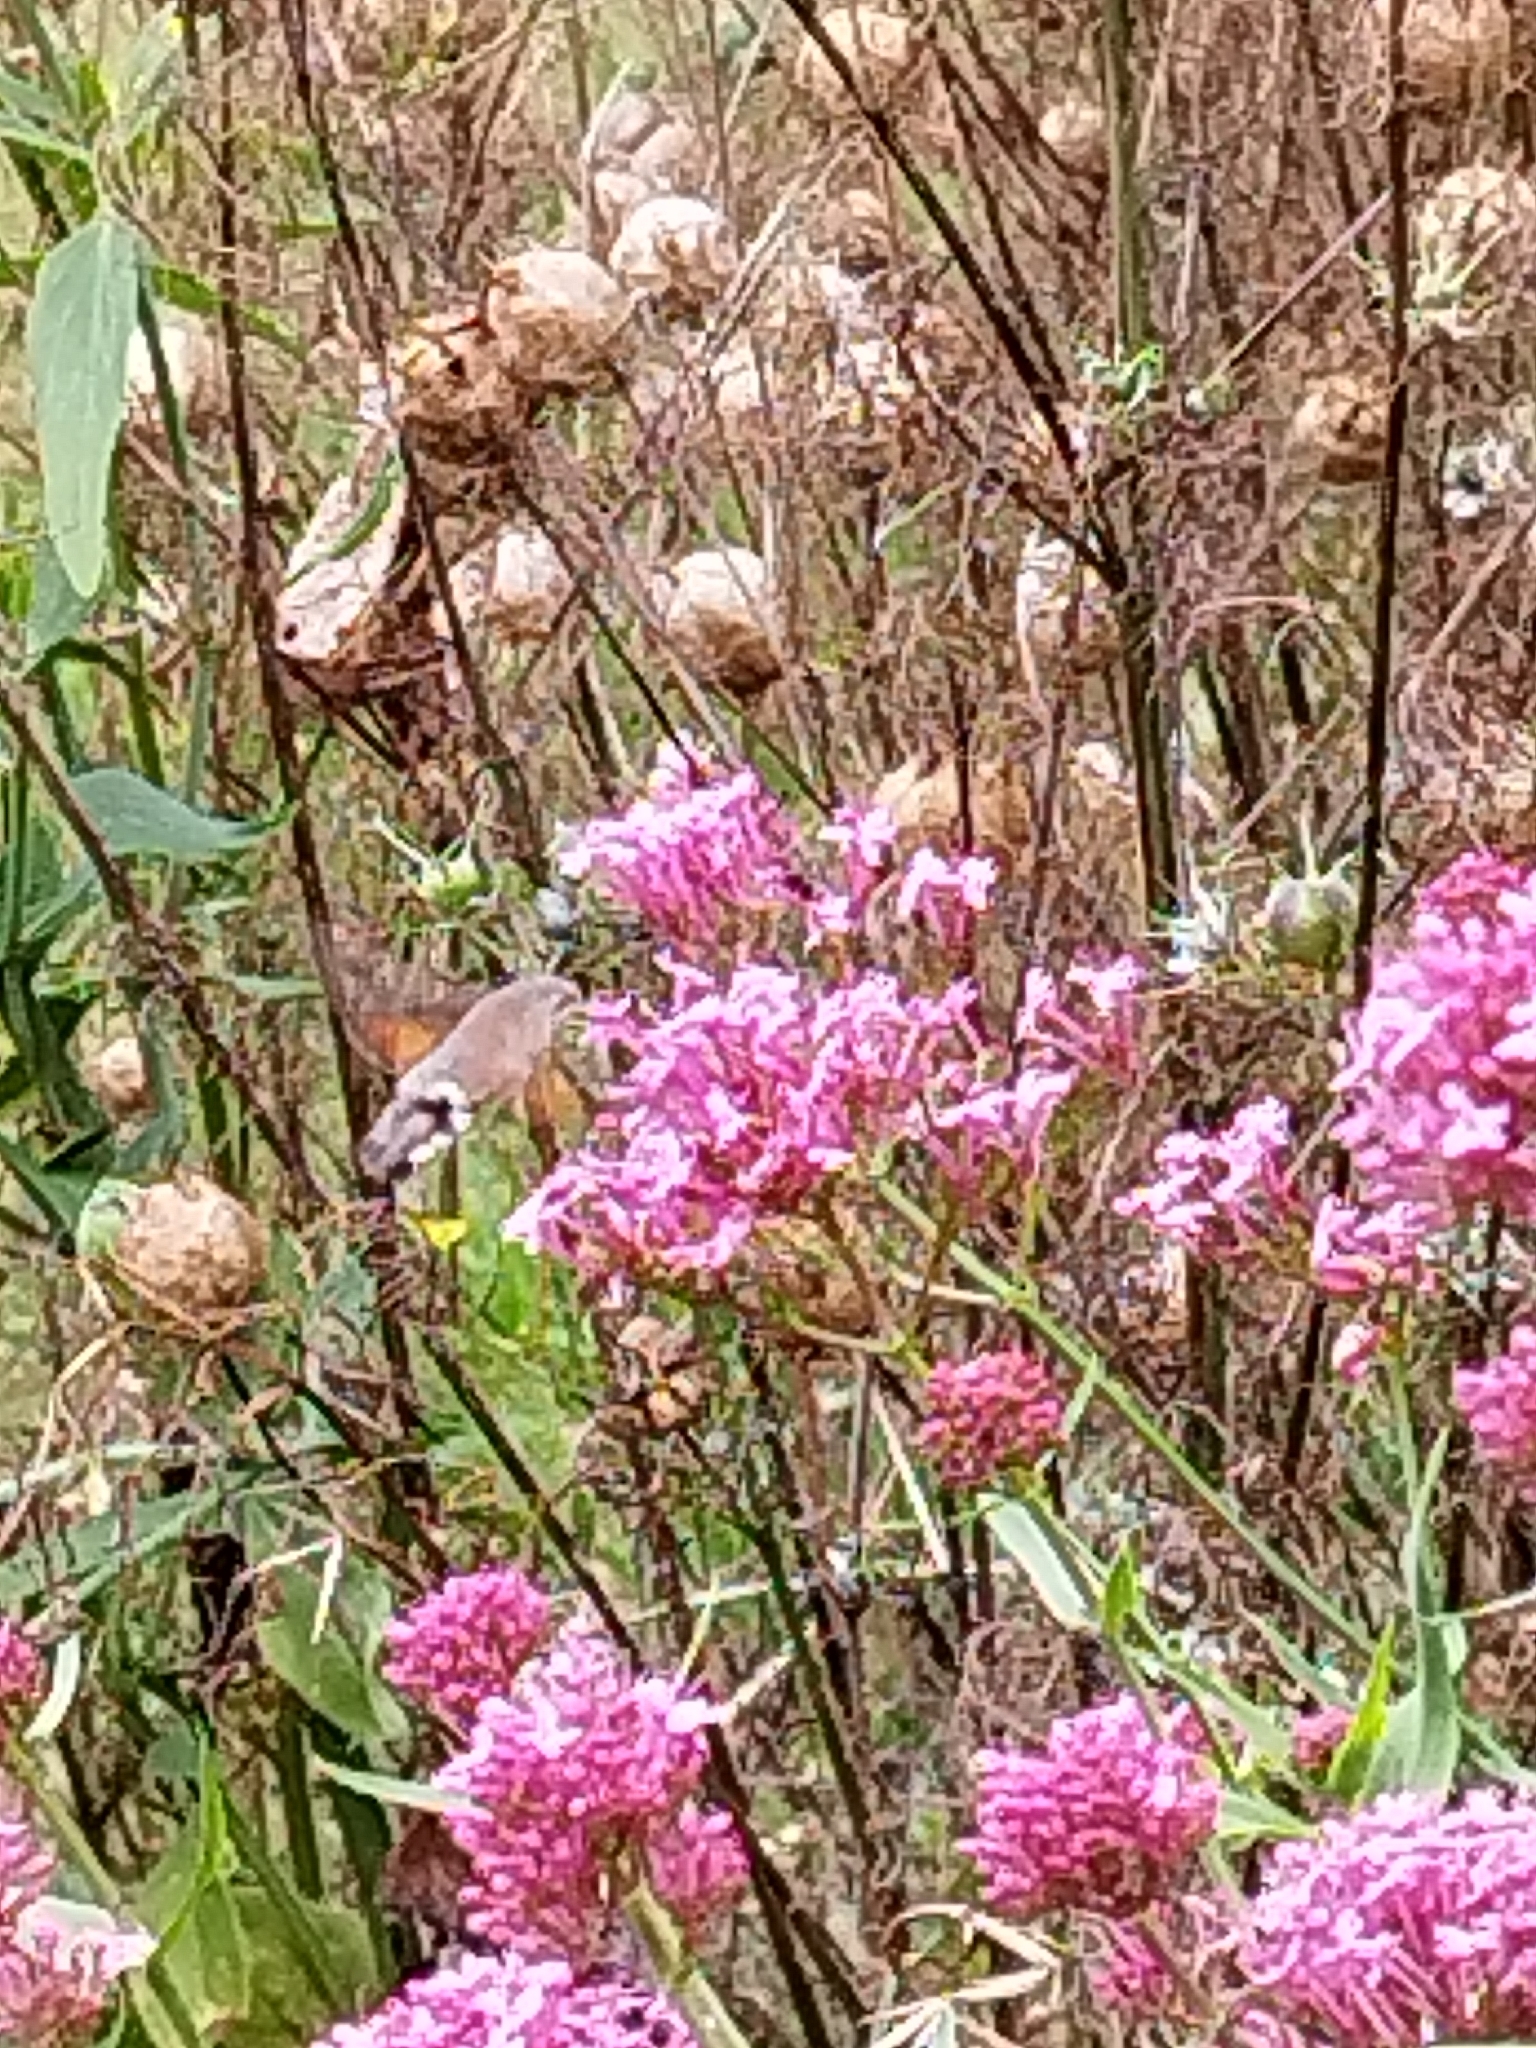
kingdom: Animalia
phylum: Arthropoda
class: Insecta
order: Lepidoptera
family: Sphingidae
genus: Macroglossum
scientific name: Macroglossum stellatarum
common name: Humming-bird hawk-moth
